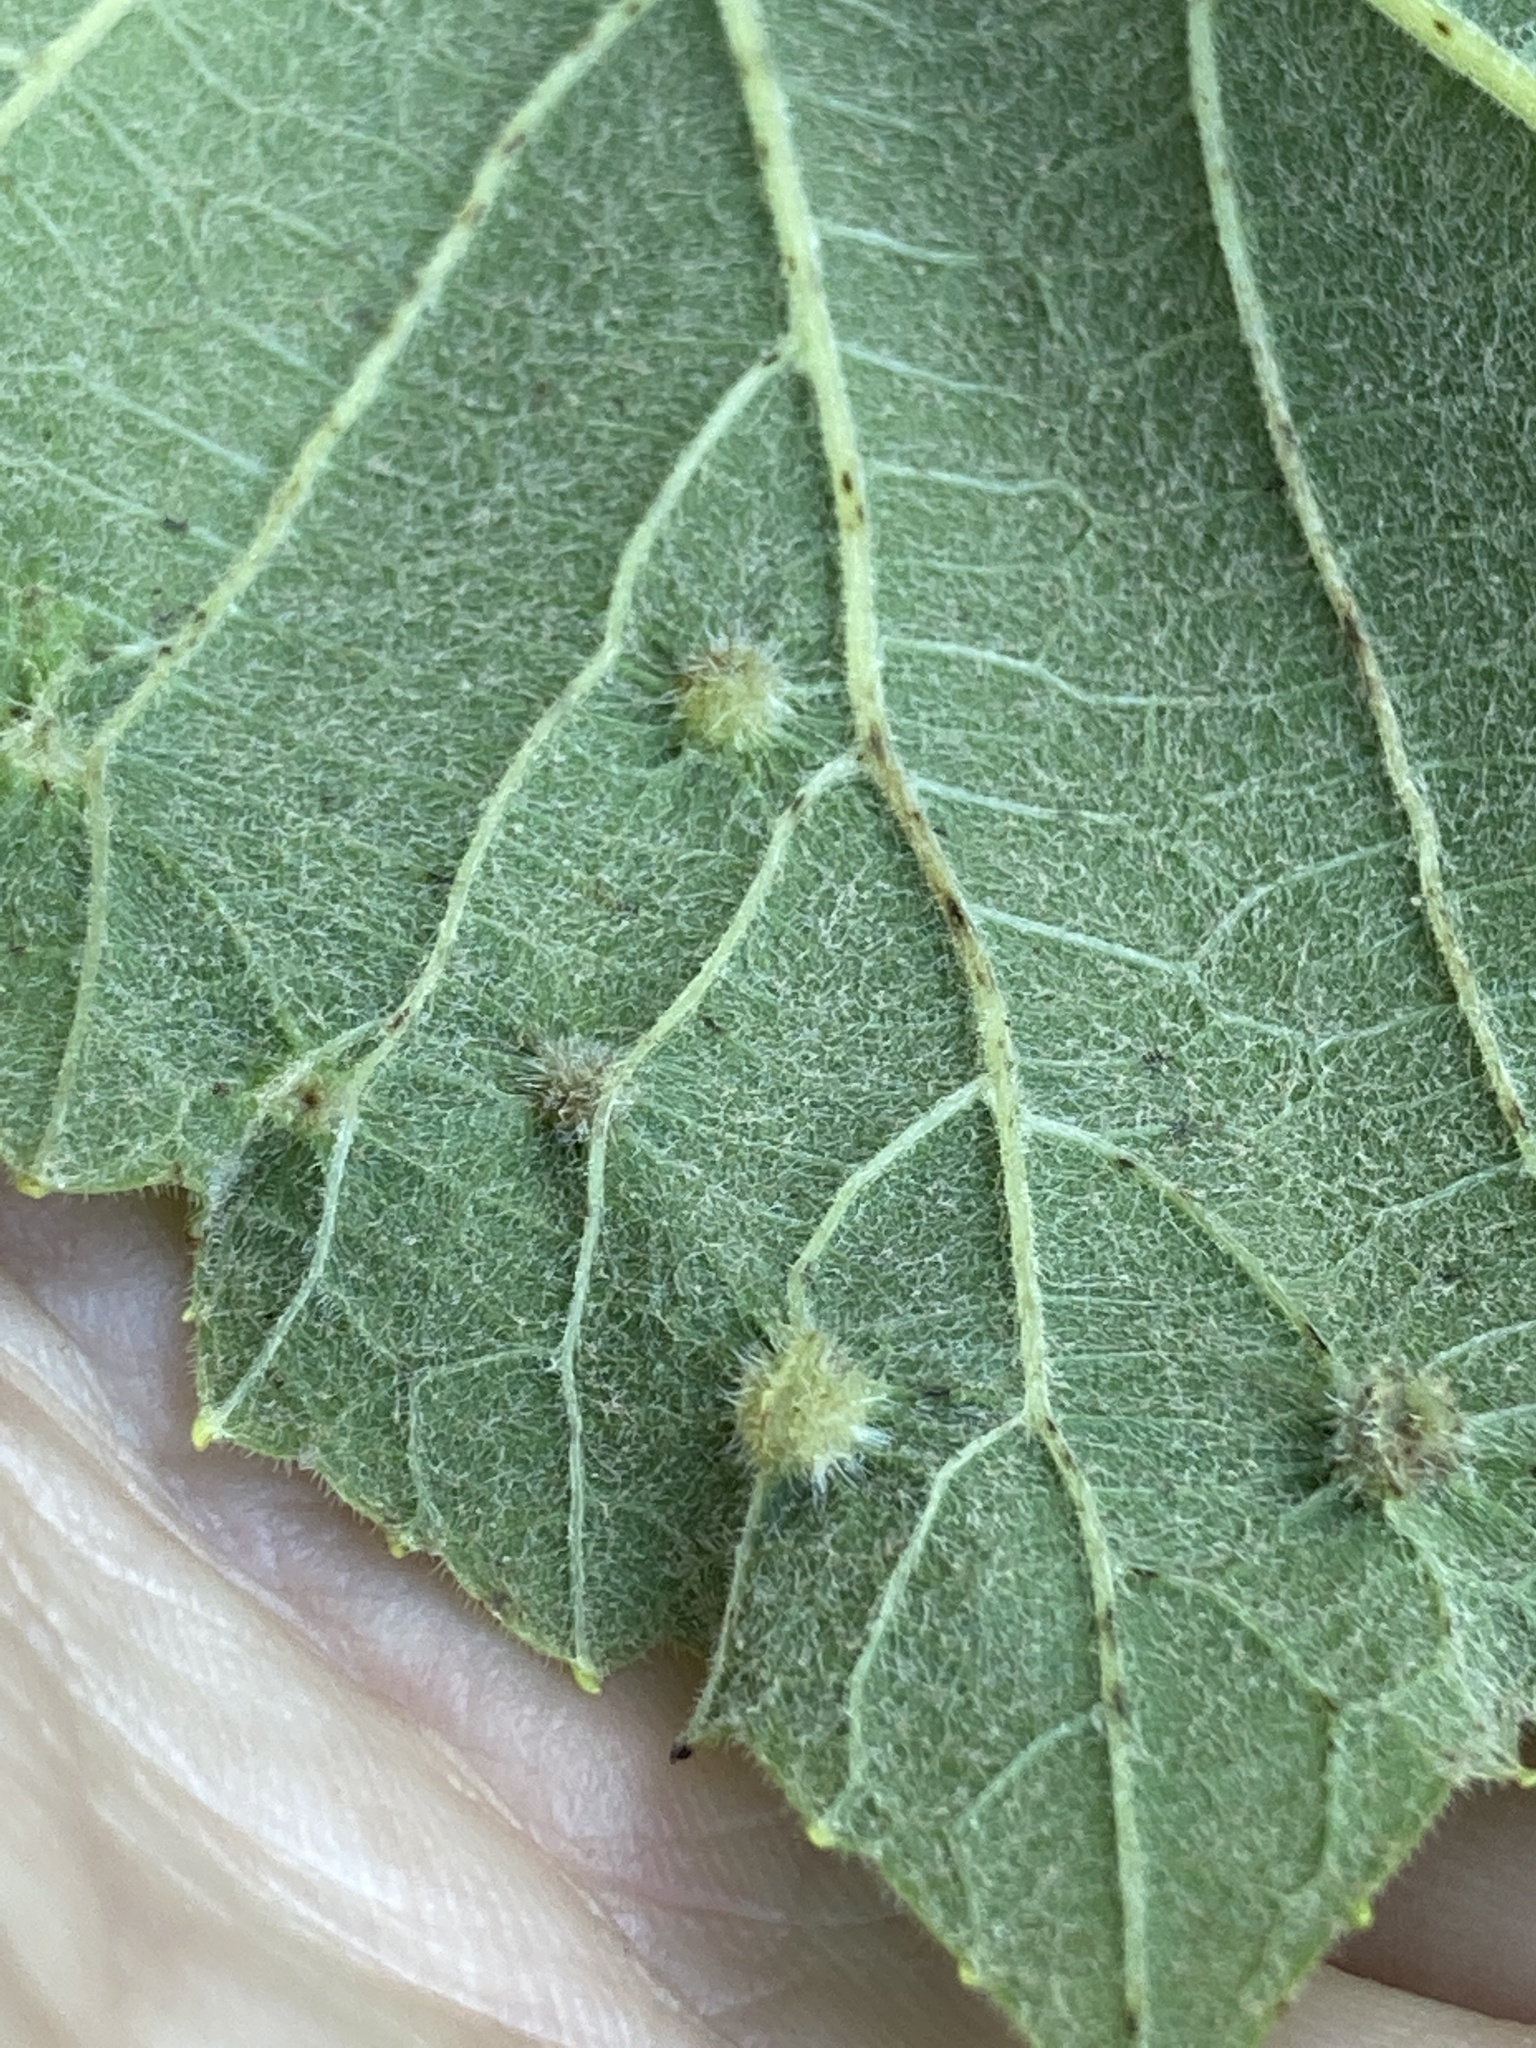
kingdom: Animalia
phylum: Arthropoda
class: Insecta
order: Hemiptera
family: Phylloxeridae
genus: Daktulosphaira
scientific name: Daktulosphaira vitifoliae
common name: Grape phylloxera
